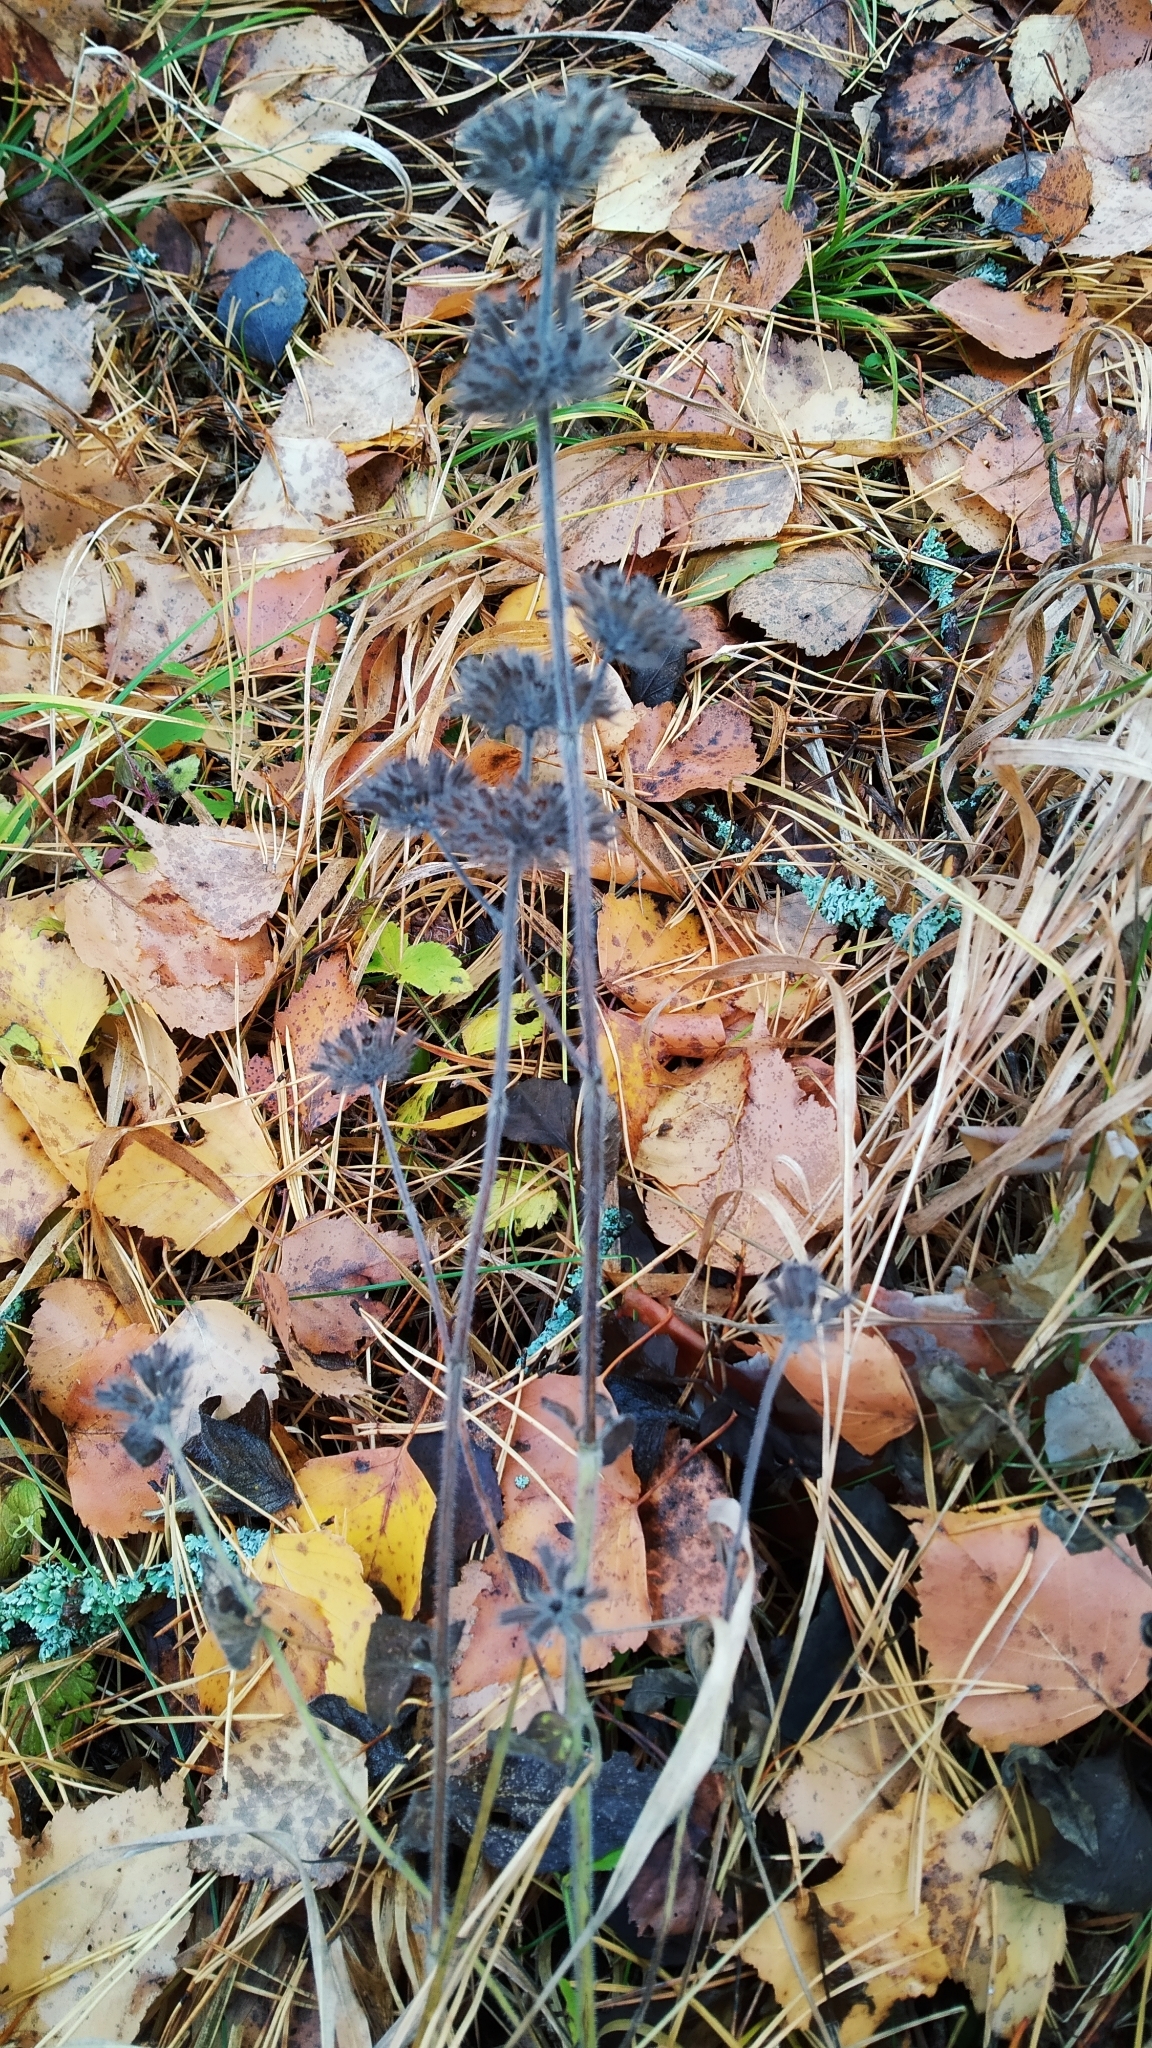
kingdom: Plantae
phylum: Tracheophyta
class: Magnoliopsida
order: Lamiales
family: Lamiaceae
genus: Clinopodium
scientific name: Clinopodium vulgare
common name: Wild basil
